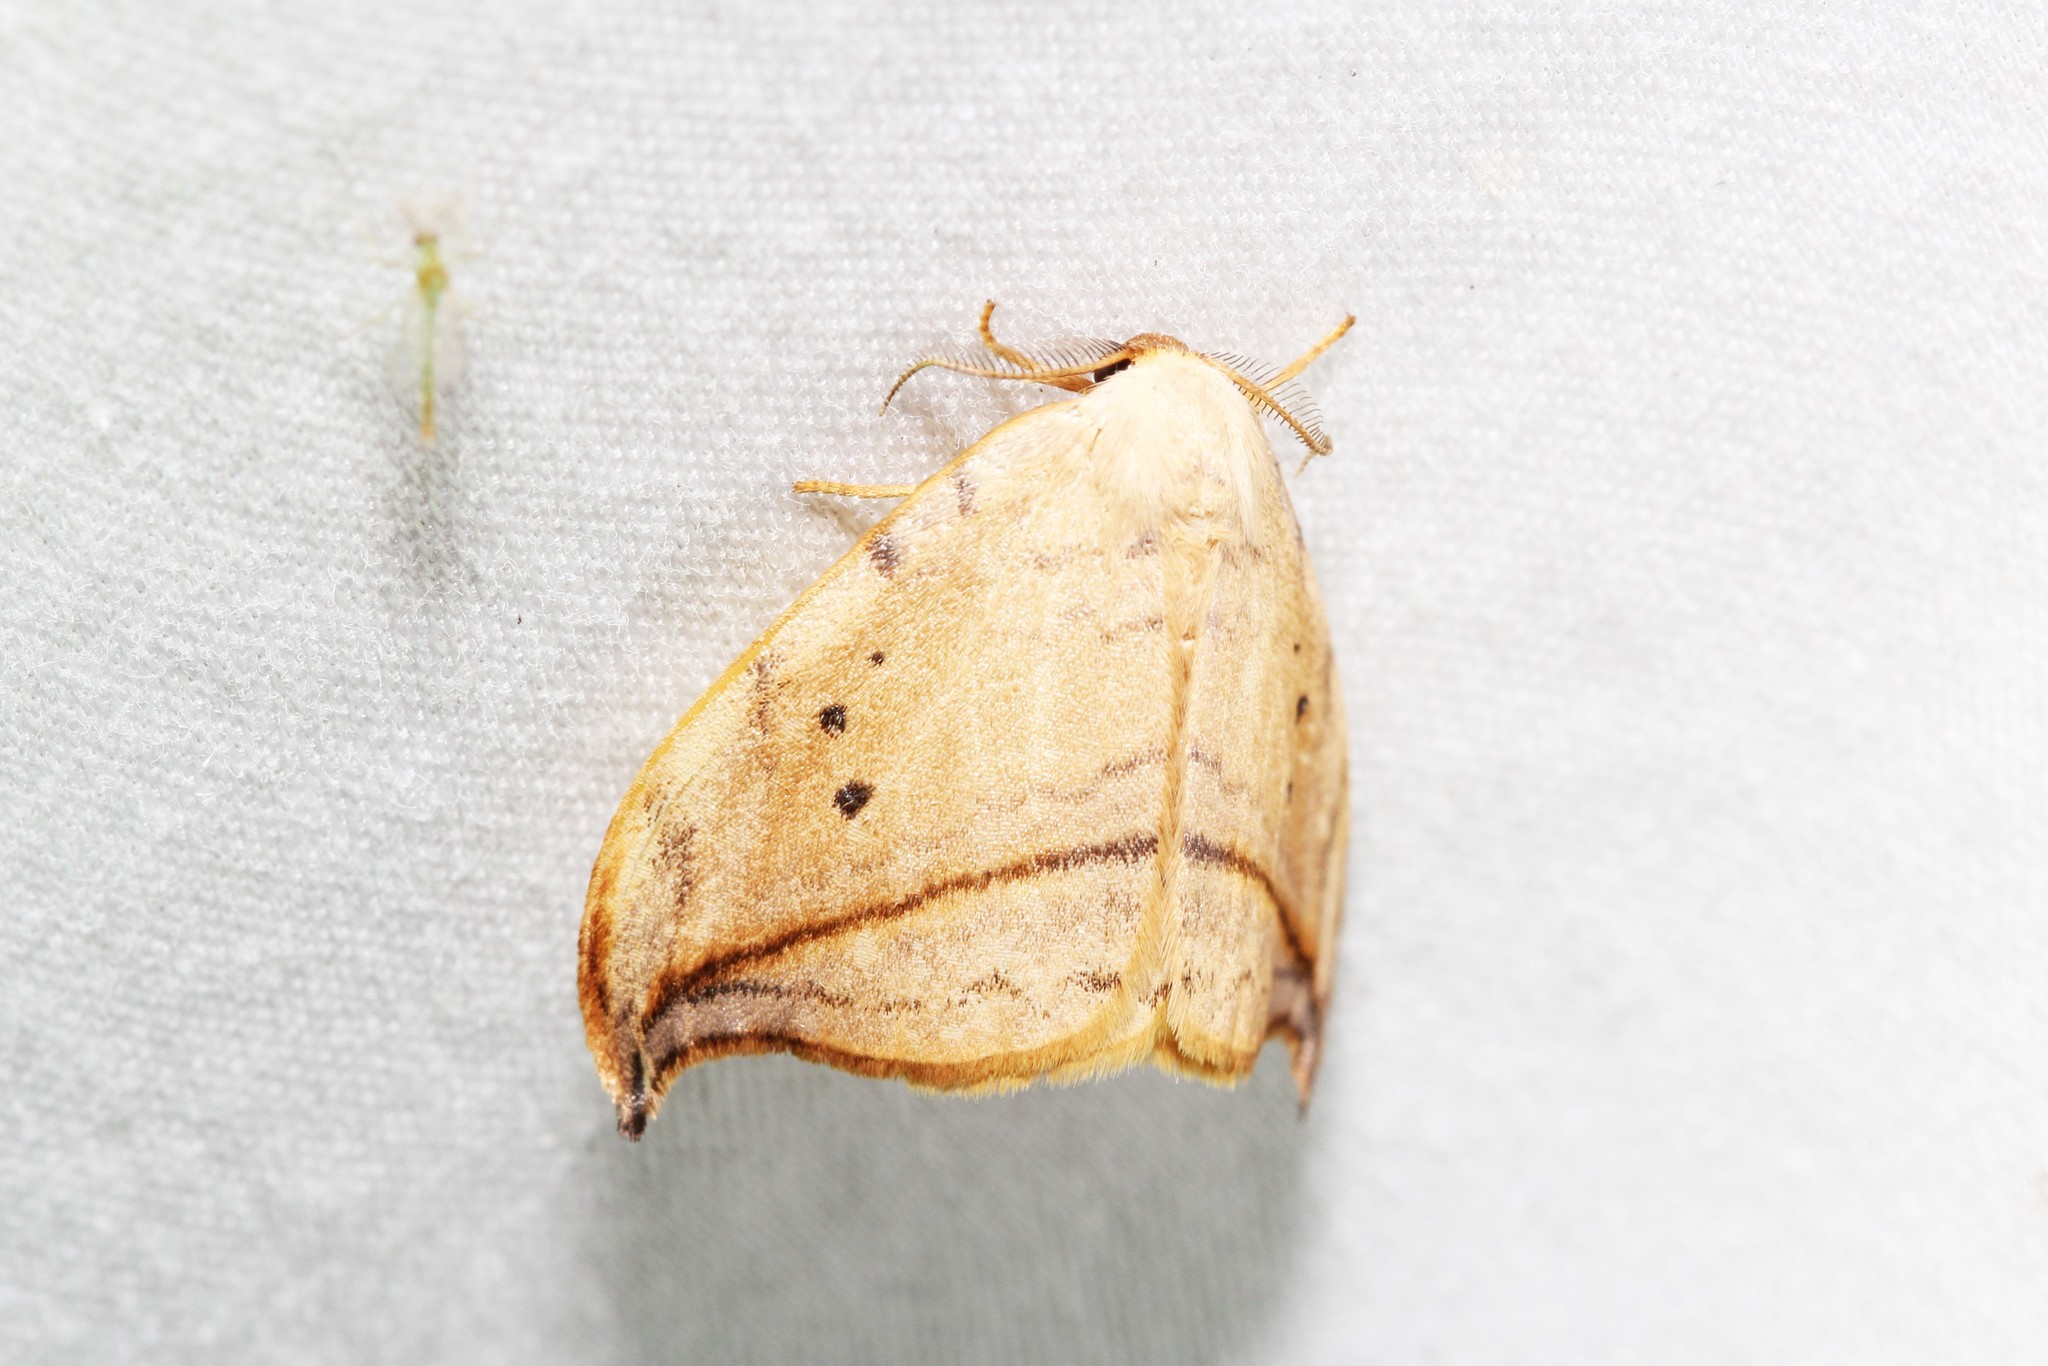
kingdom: Animalia
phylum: Arthropoda
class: Insecta
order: Lepidoptera
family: Drepanidae
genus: Drepana
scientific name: Drepana arcuata
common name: Arched hooktip moth
